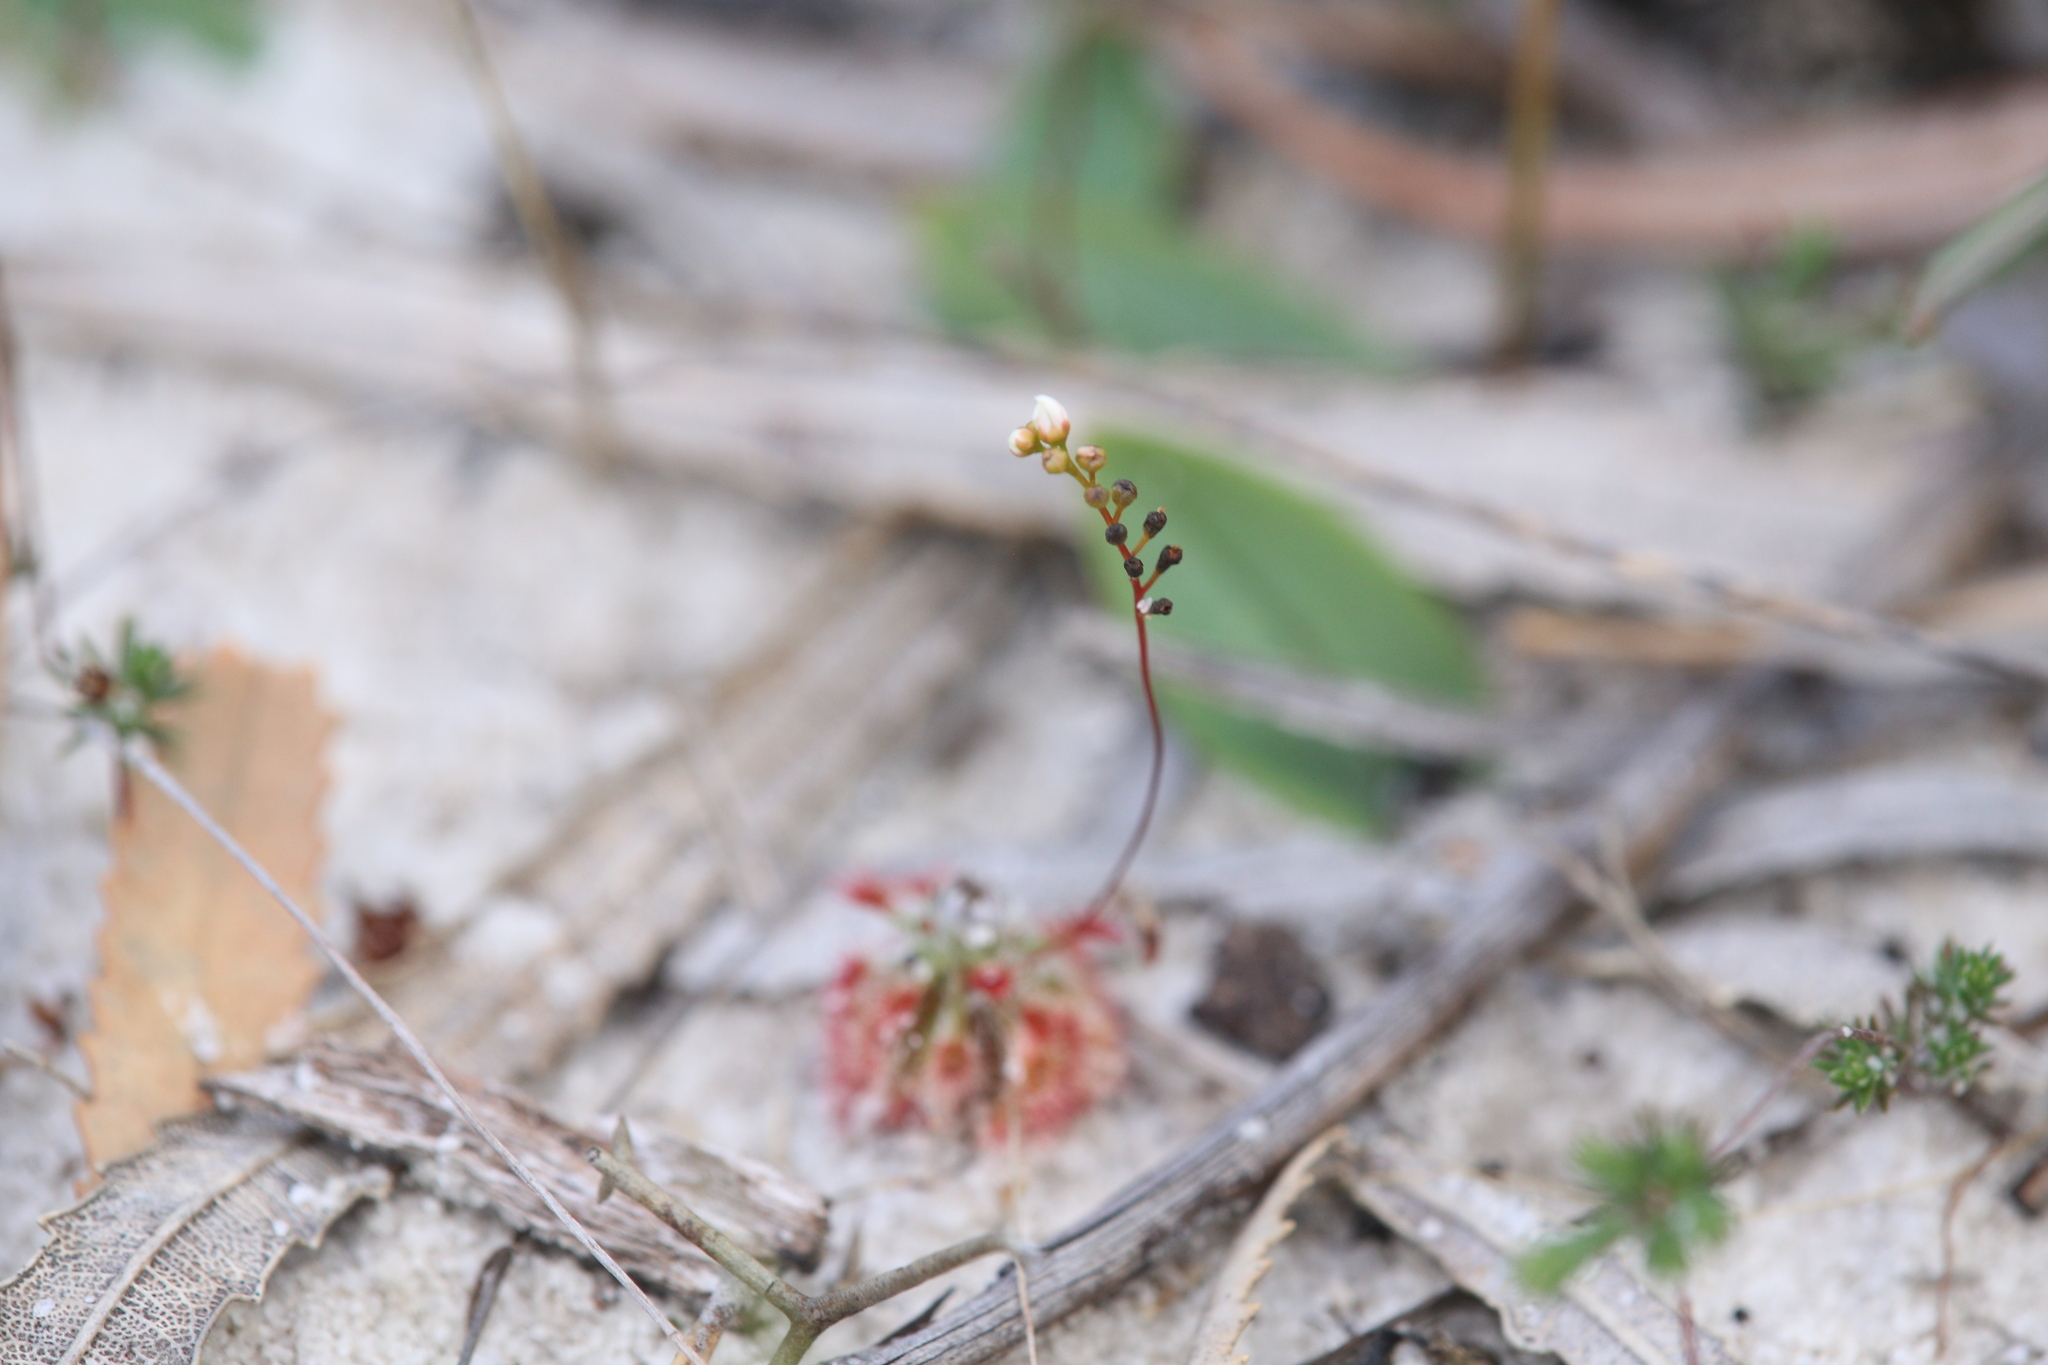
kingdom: Plantae
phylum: Tracheophyta
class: Magnoliopsida
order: Caryophyllales
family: Droseraceae
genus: Drosera
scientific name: Drosera paleacea
